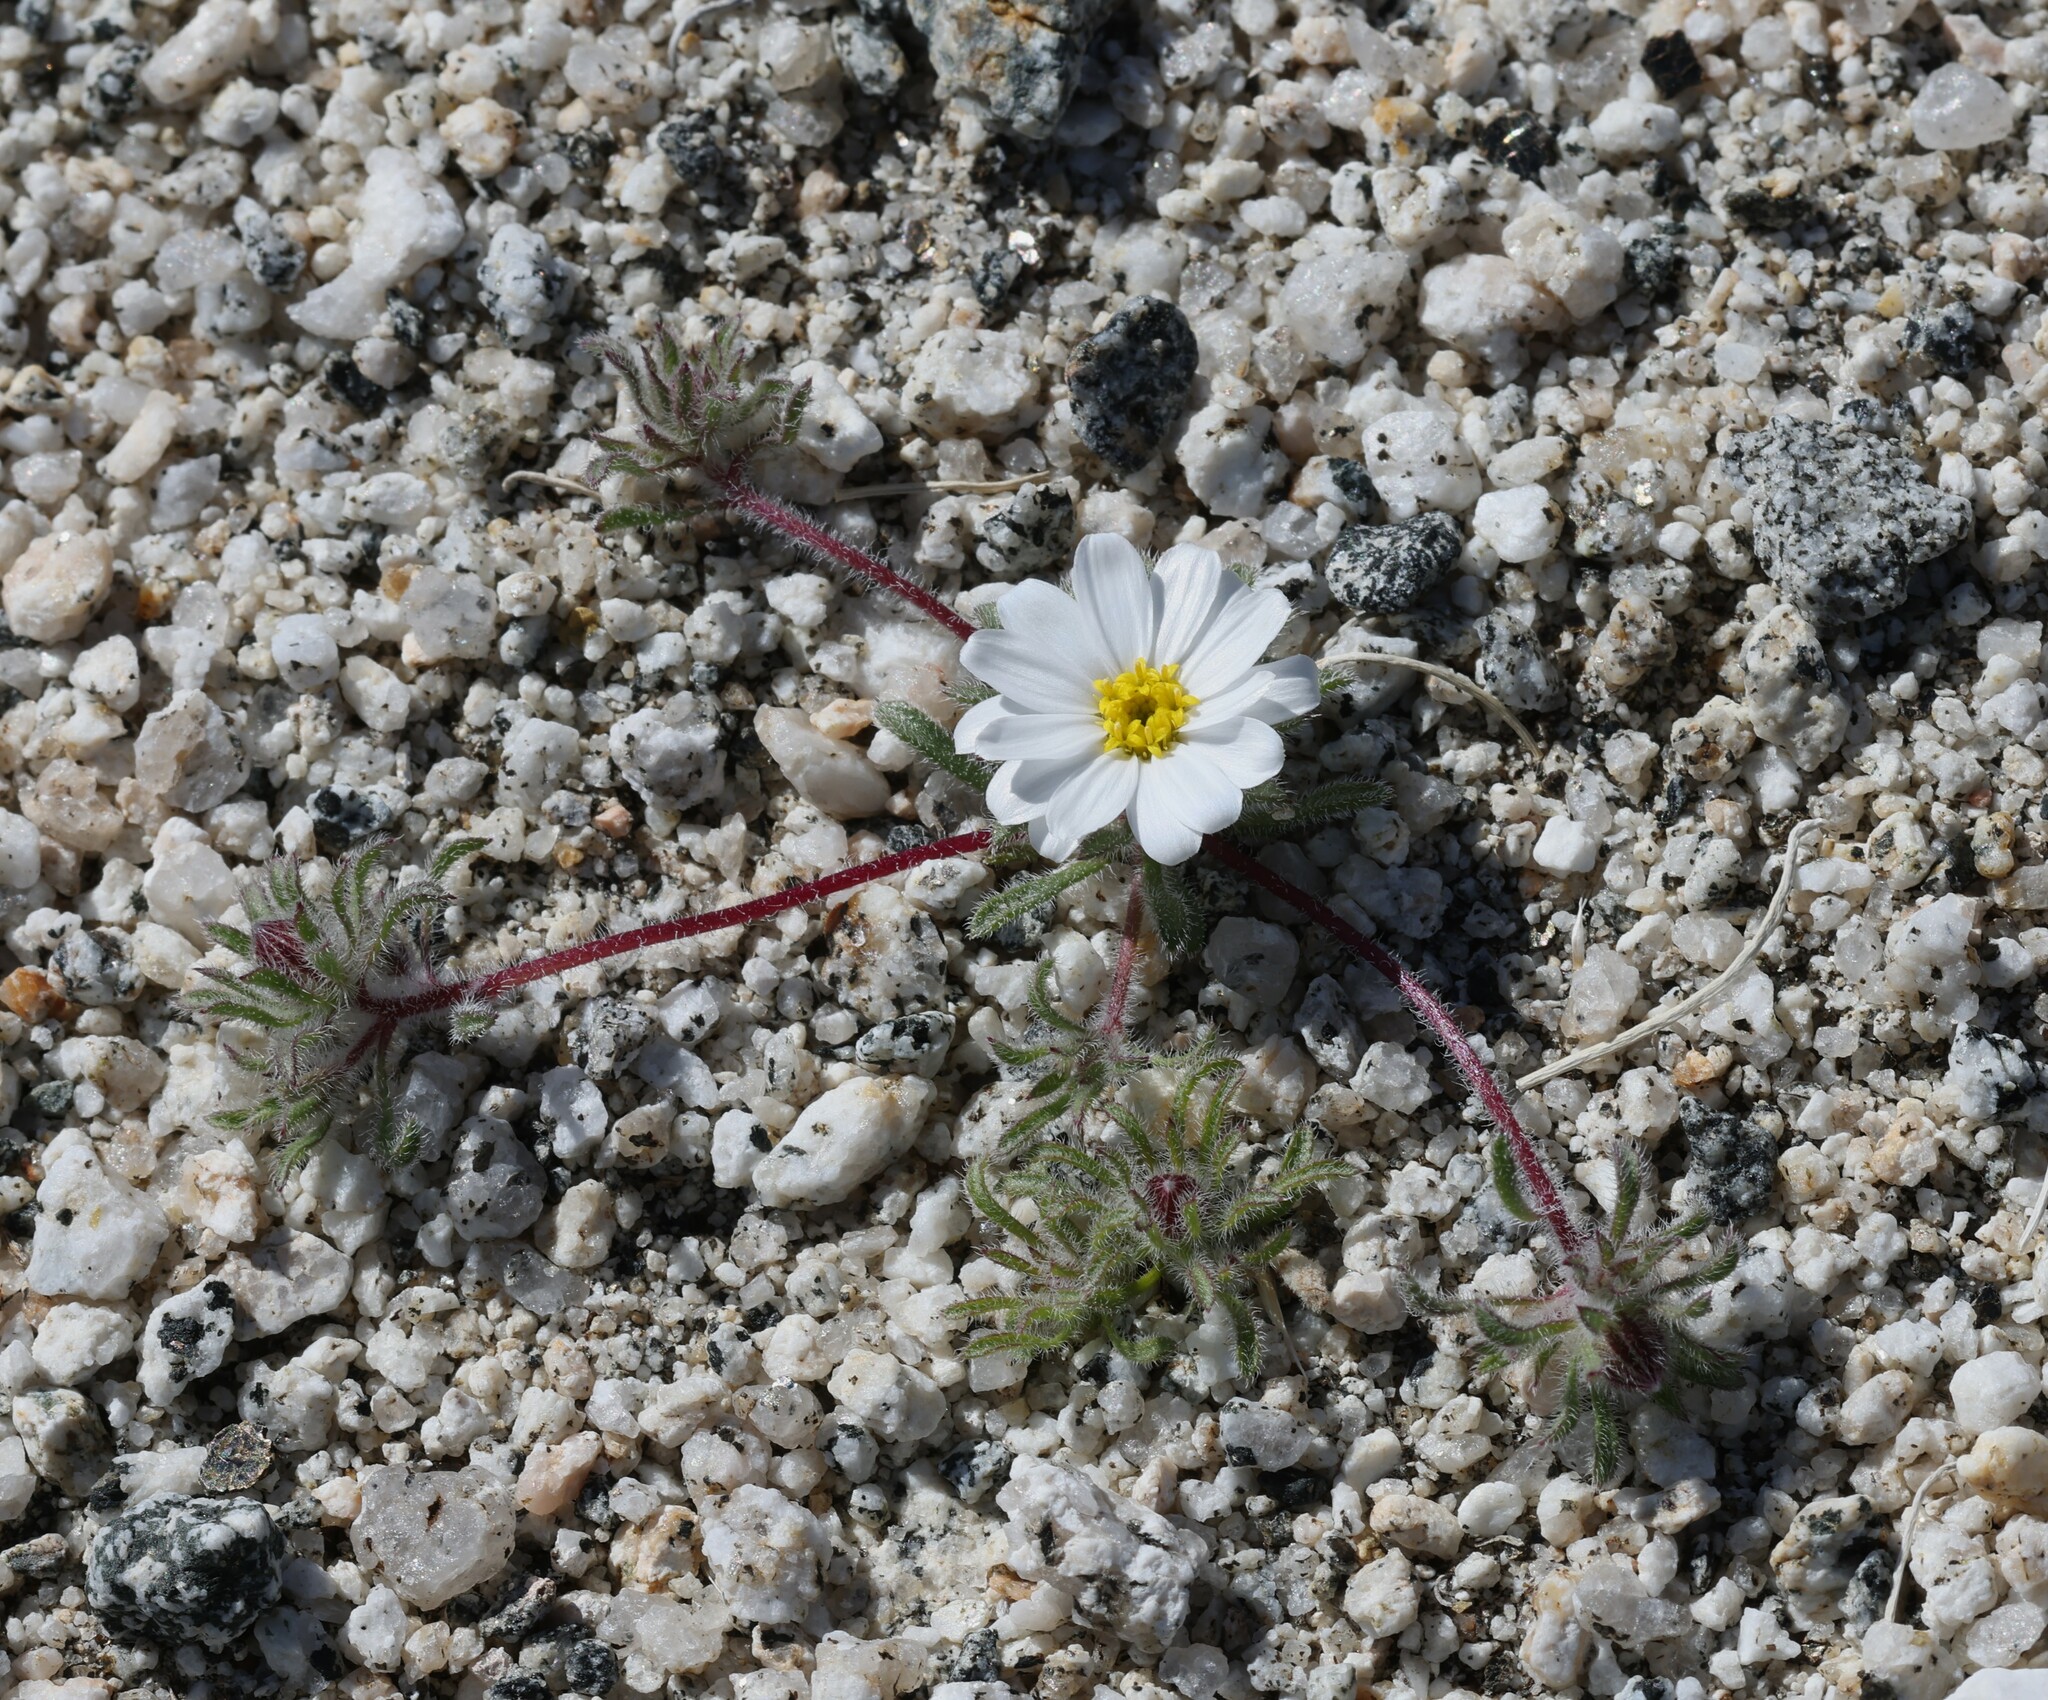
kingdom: Plantae
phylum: Tracheophyta
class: Magnoliopsida
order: Asterales
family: Asteraceae
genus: Monoptilon
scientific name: Monoptilon bellioides
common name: Bristly desertstar
